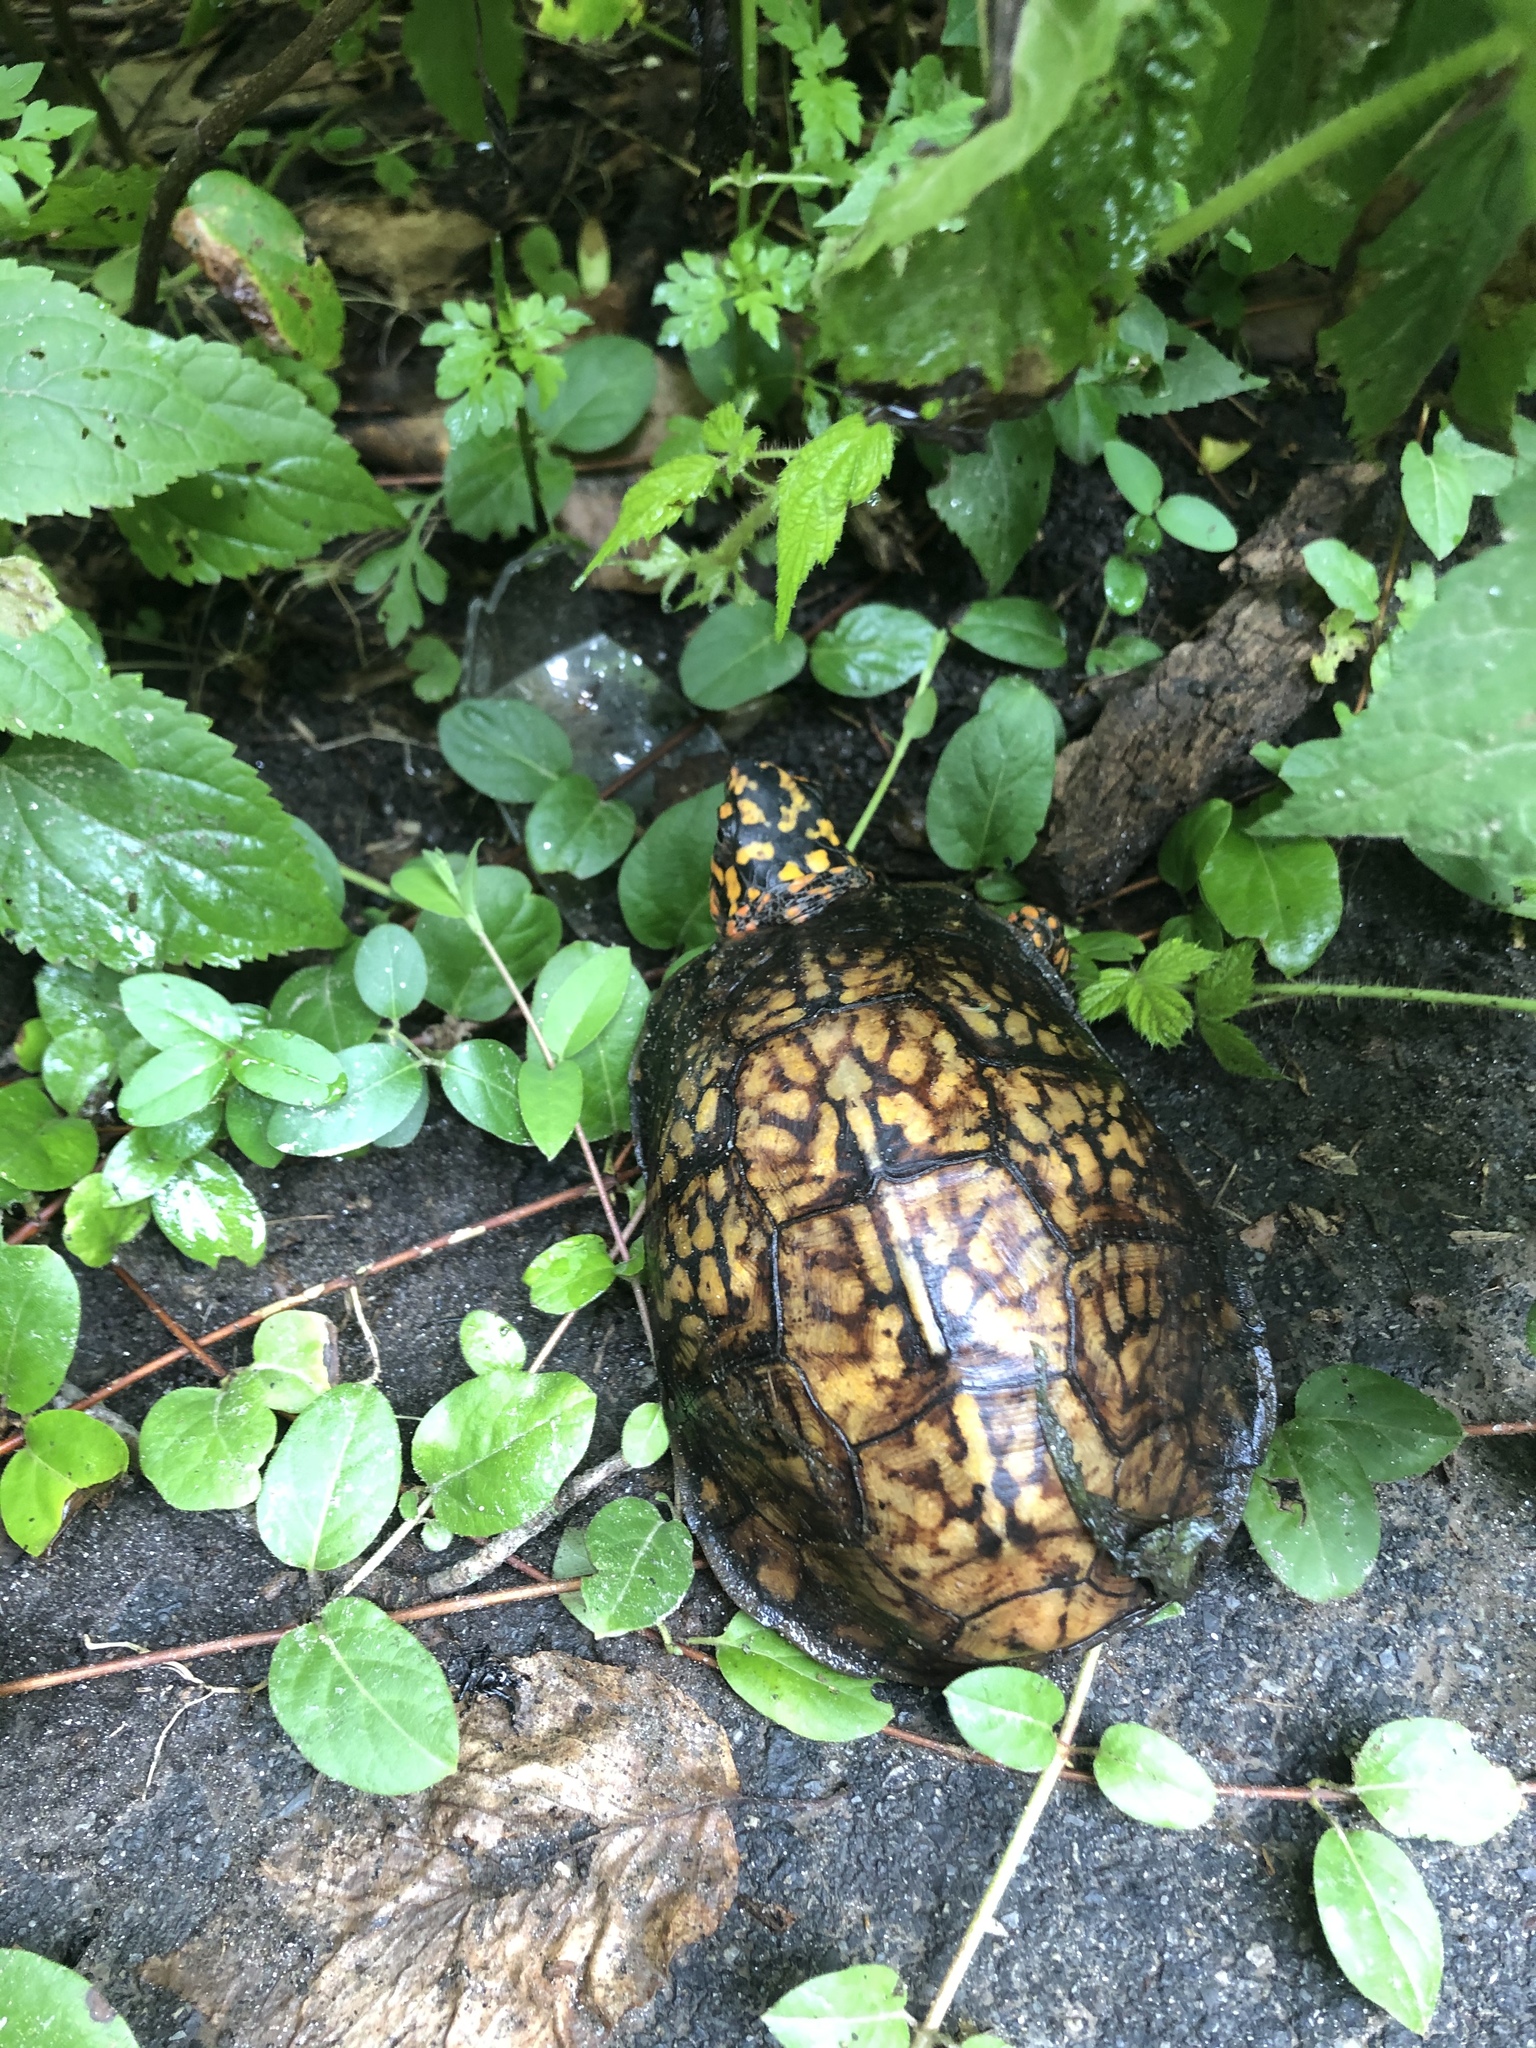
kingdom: Animalia
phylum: Chordata
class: Testudines
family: Emydidae
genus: Terrapene
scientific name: Terrapene carolina
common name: Common box turtle
